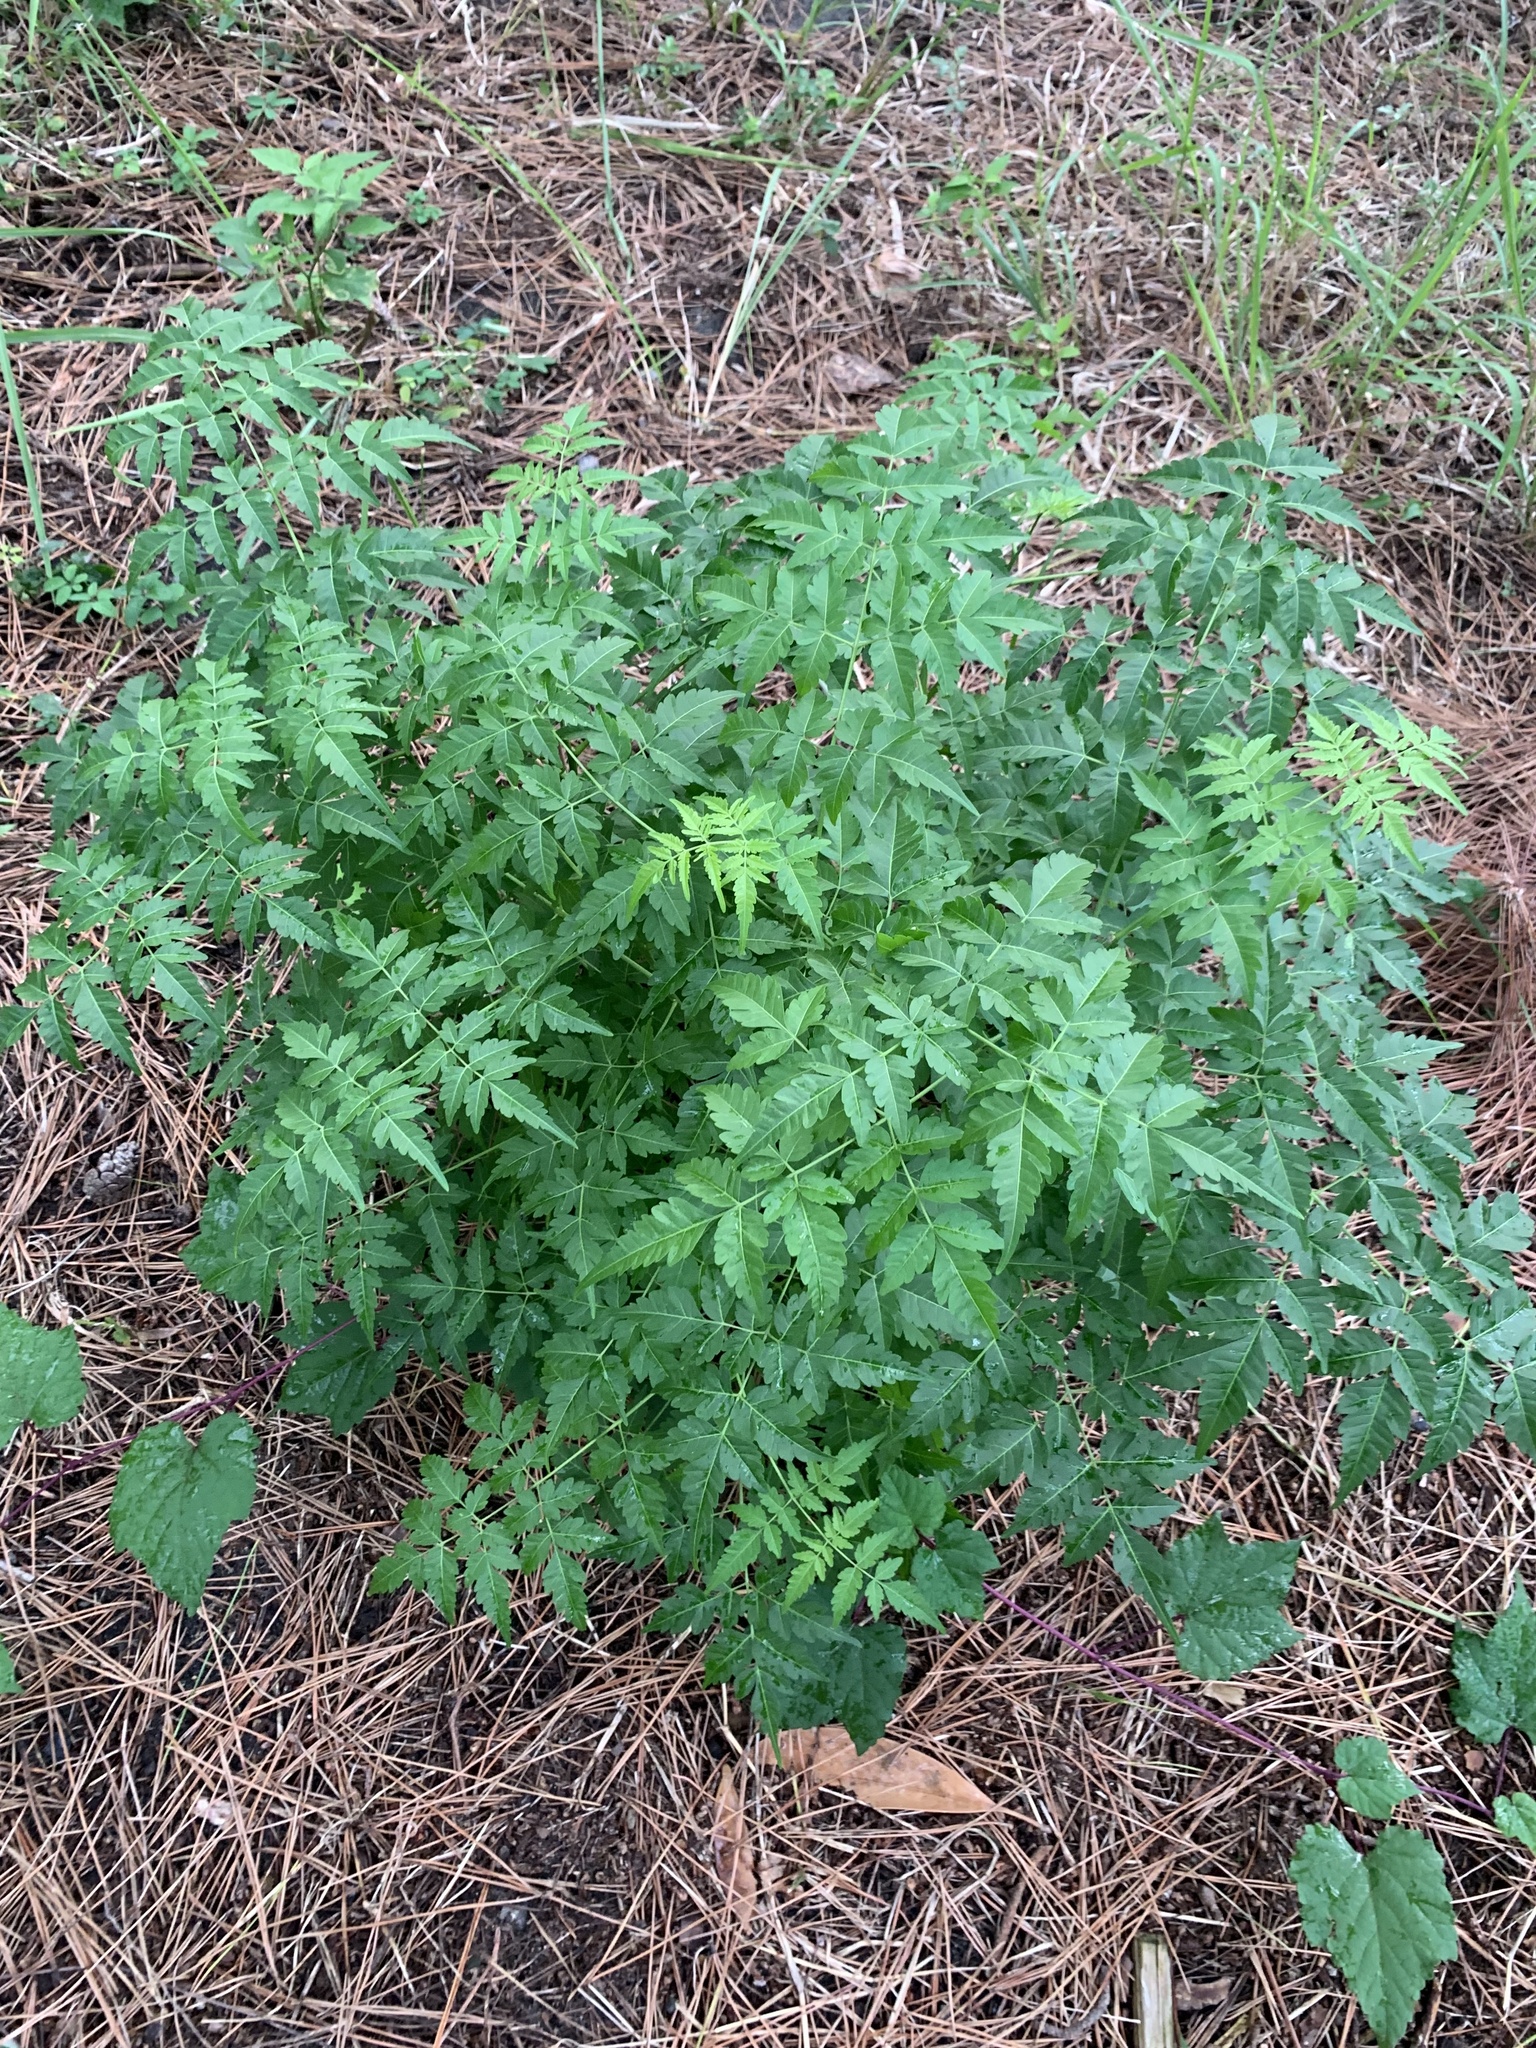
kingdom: Plantae
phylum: Tracheophyta
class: Magnoliopsida
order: Sapindales
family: Meliaceae
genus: Melia
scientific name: Melia azedarach
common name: Chinaberrytree
